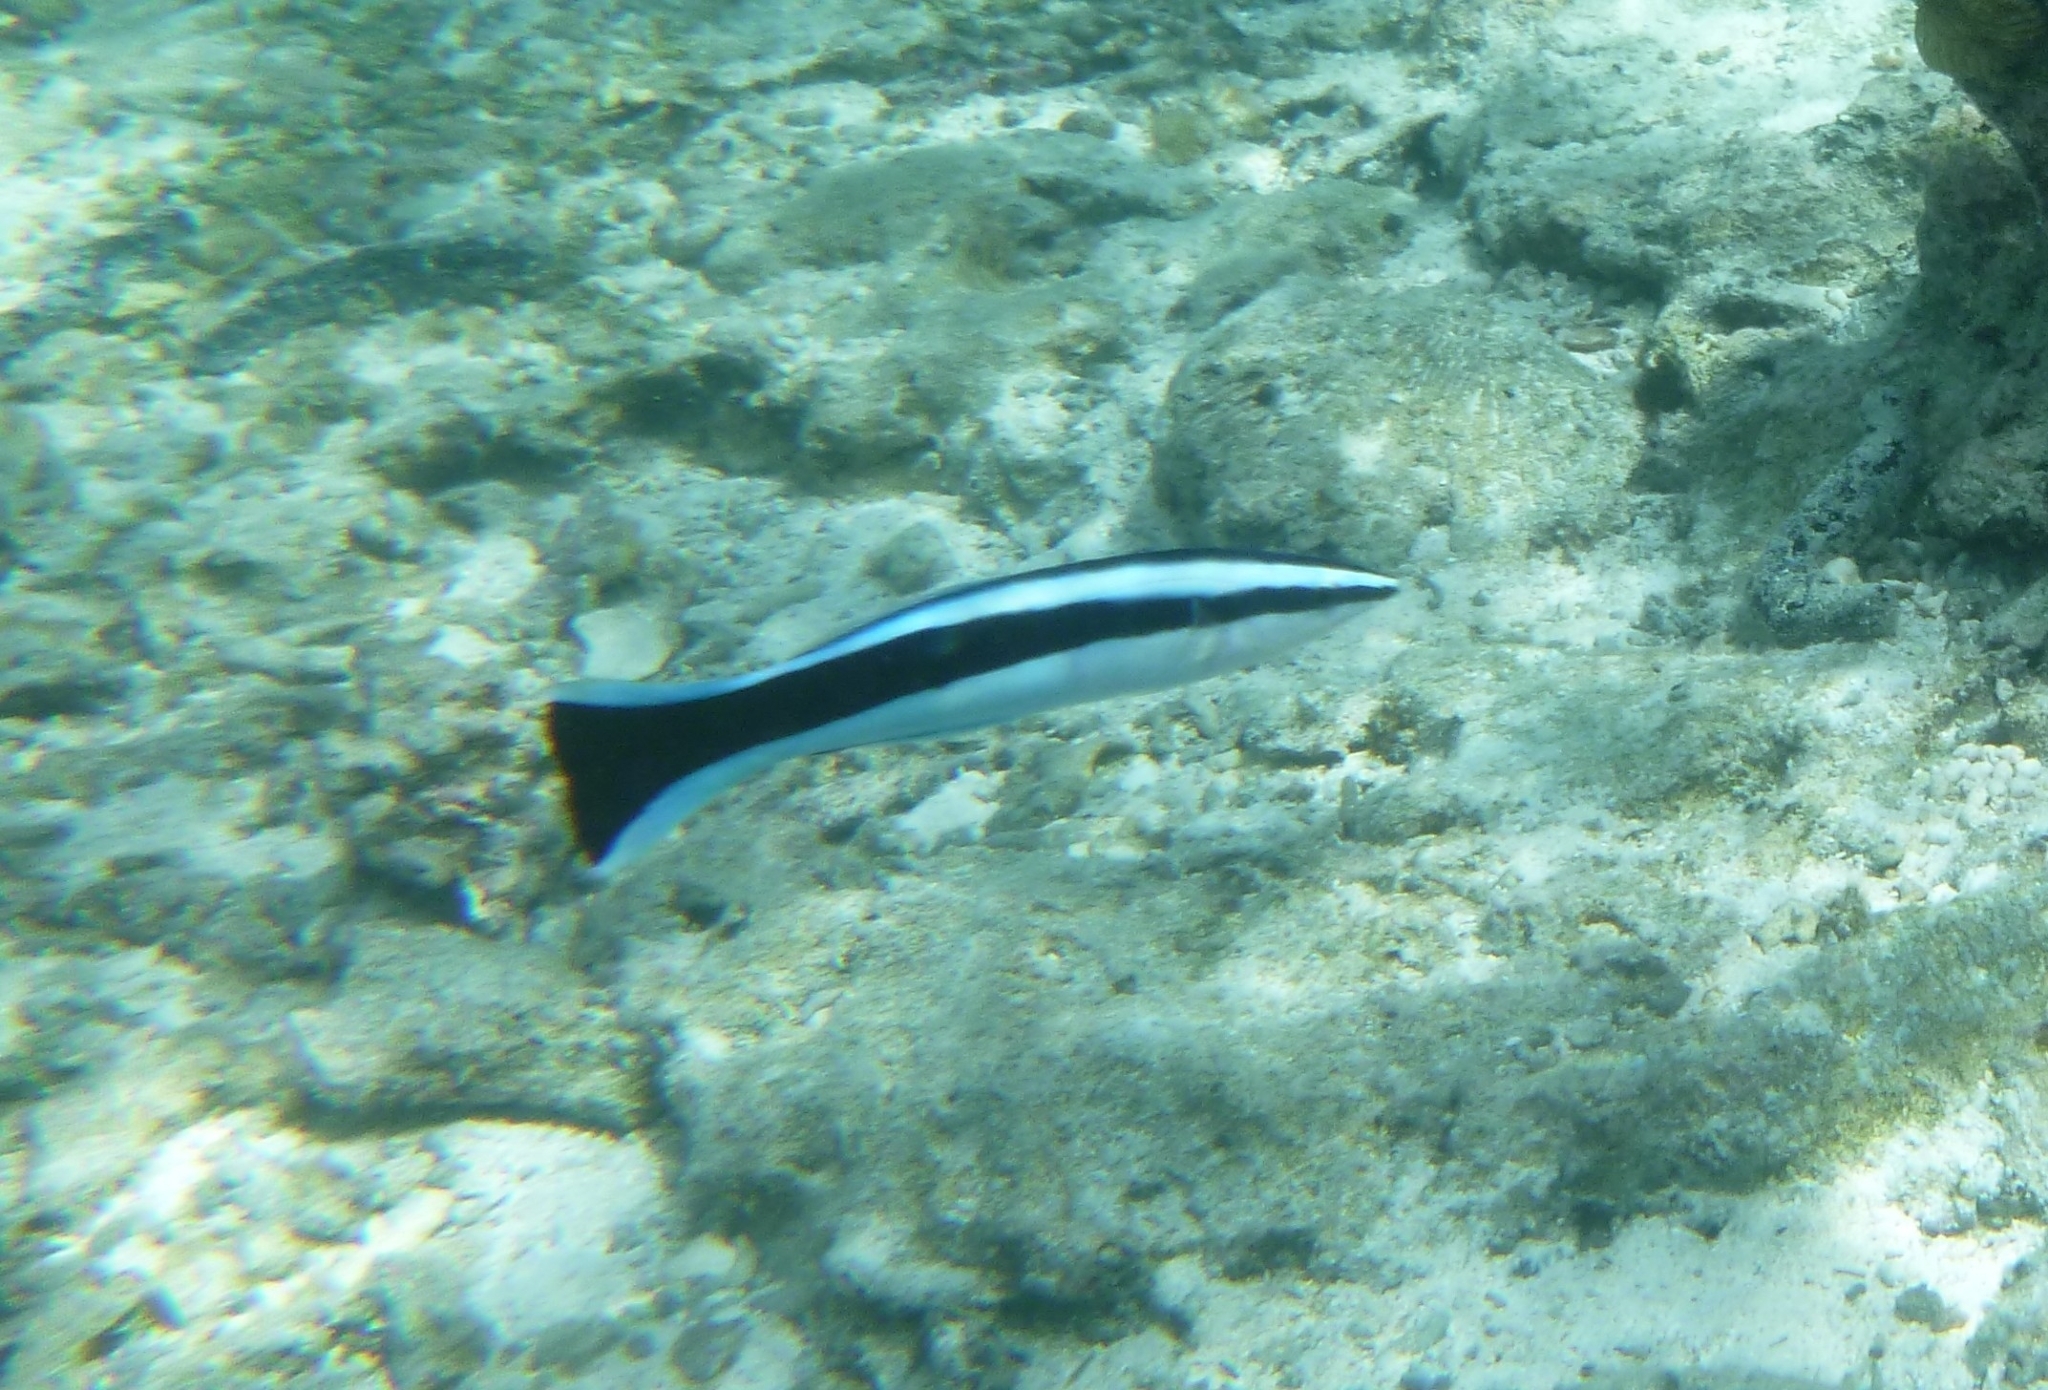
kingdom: Animalia
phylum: Chordata
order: Perciformes
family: Labridae
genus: Labroides
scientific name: Labroides dimidiatus
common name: Blue diesel wrasse
